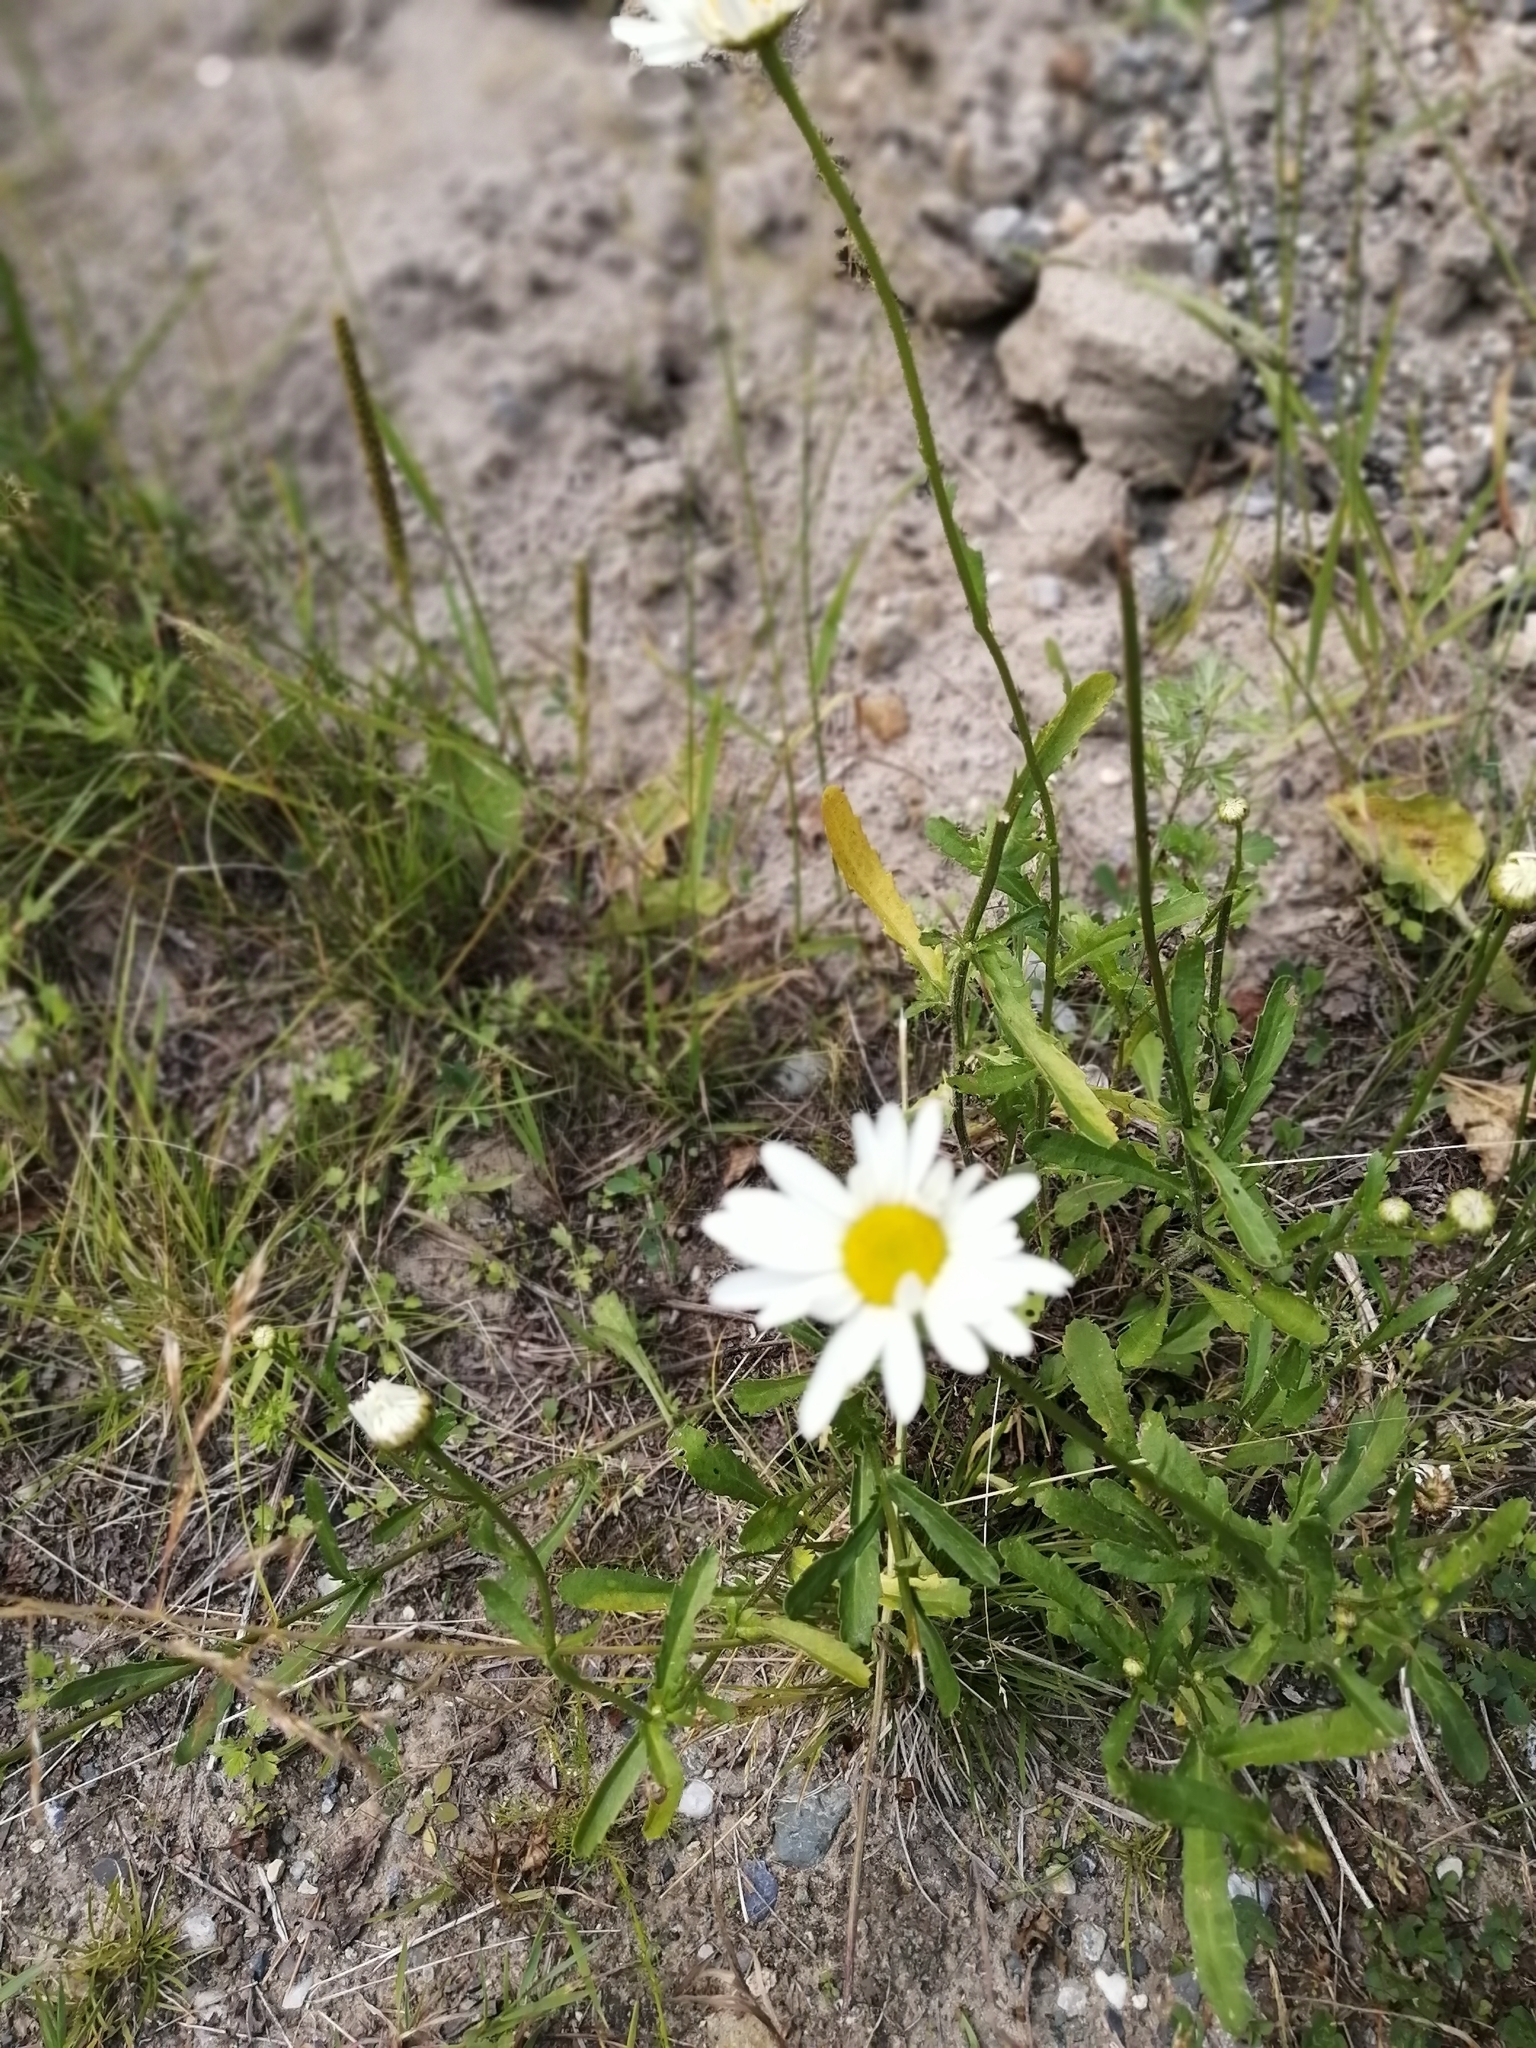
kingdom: Plantae
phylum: Tracheophyta
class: Magnoliopsida
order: Asterales
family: Asteraceae
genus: Leucanthemum
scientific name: Leucanthemum ircutianum
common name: Daisy
